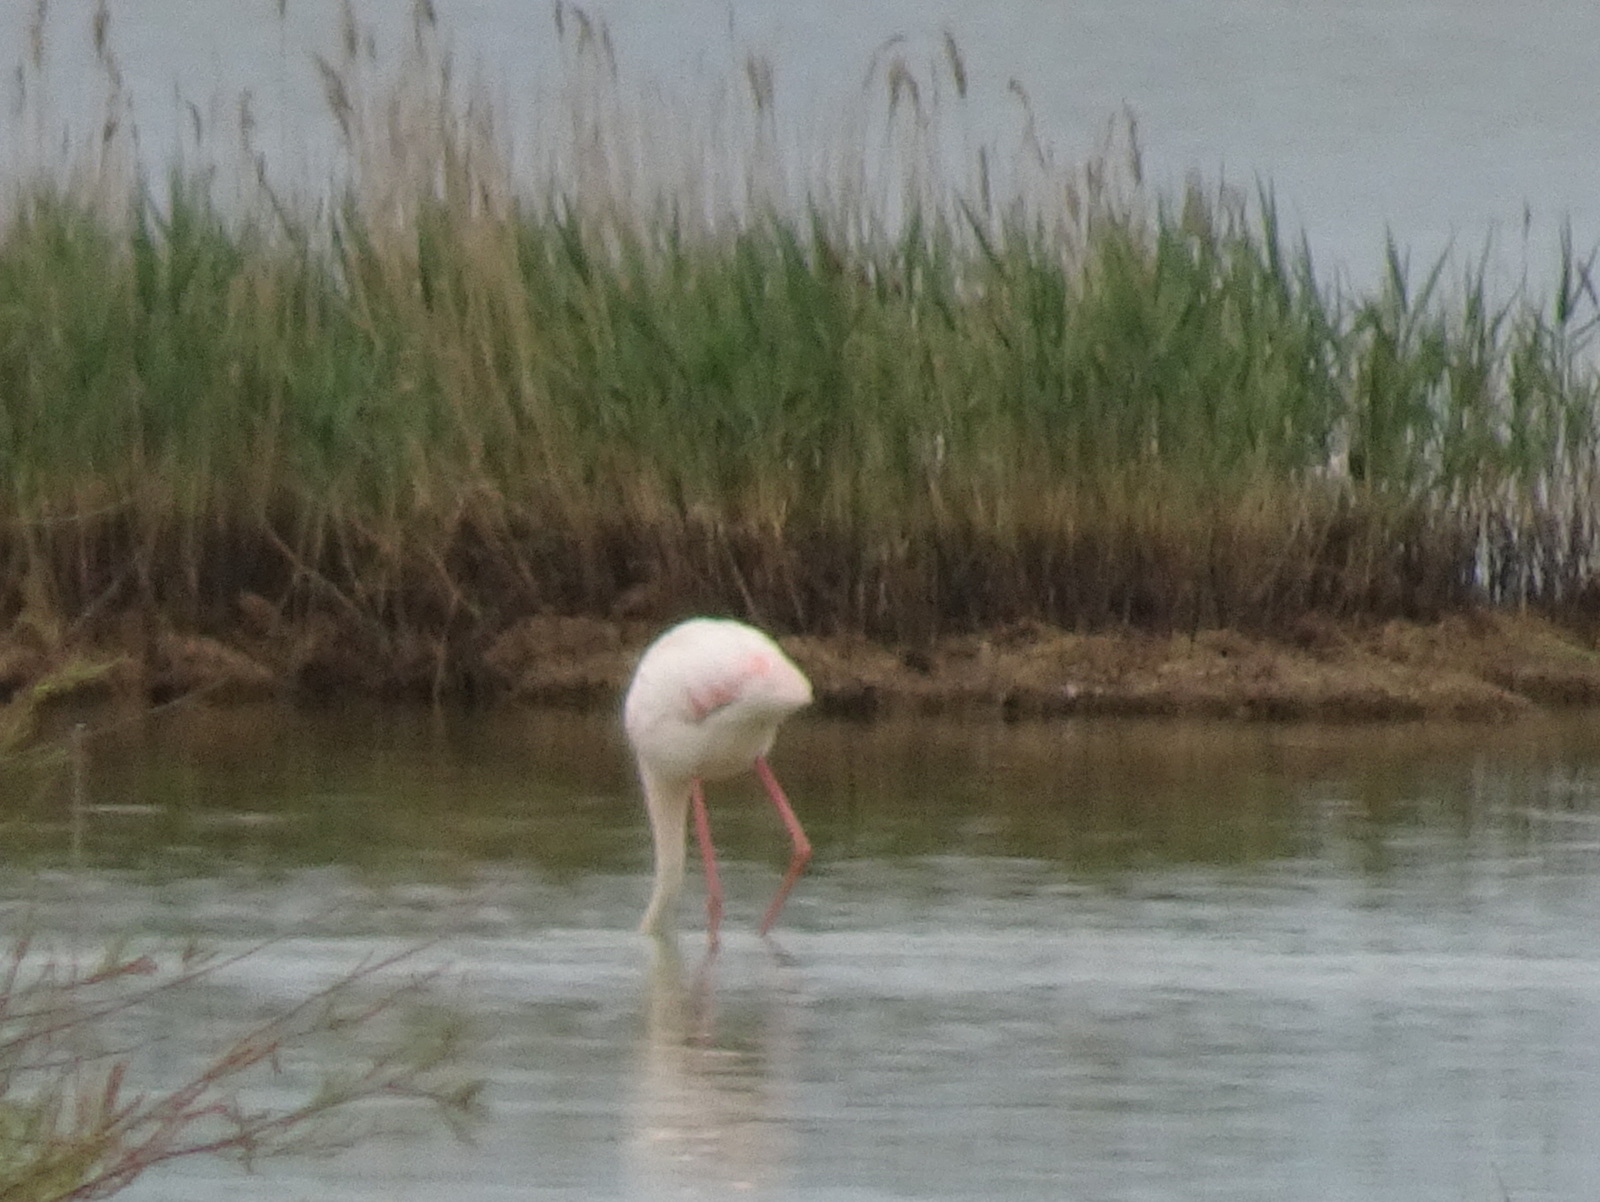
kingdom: Animalia
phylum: Chordata
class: Aves
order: Phoenicopteriformes
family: Phoenicopteridae
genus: Phoenicopterus
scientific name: Phoenicopterus roseus
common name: Greater flamingo
